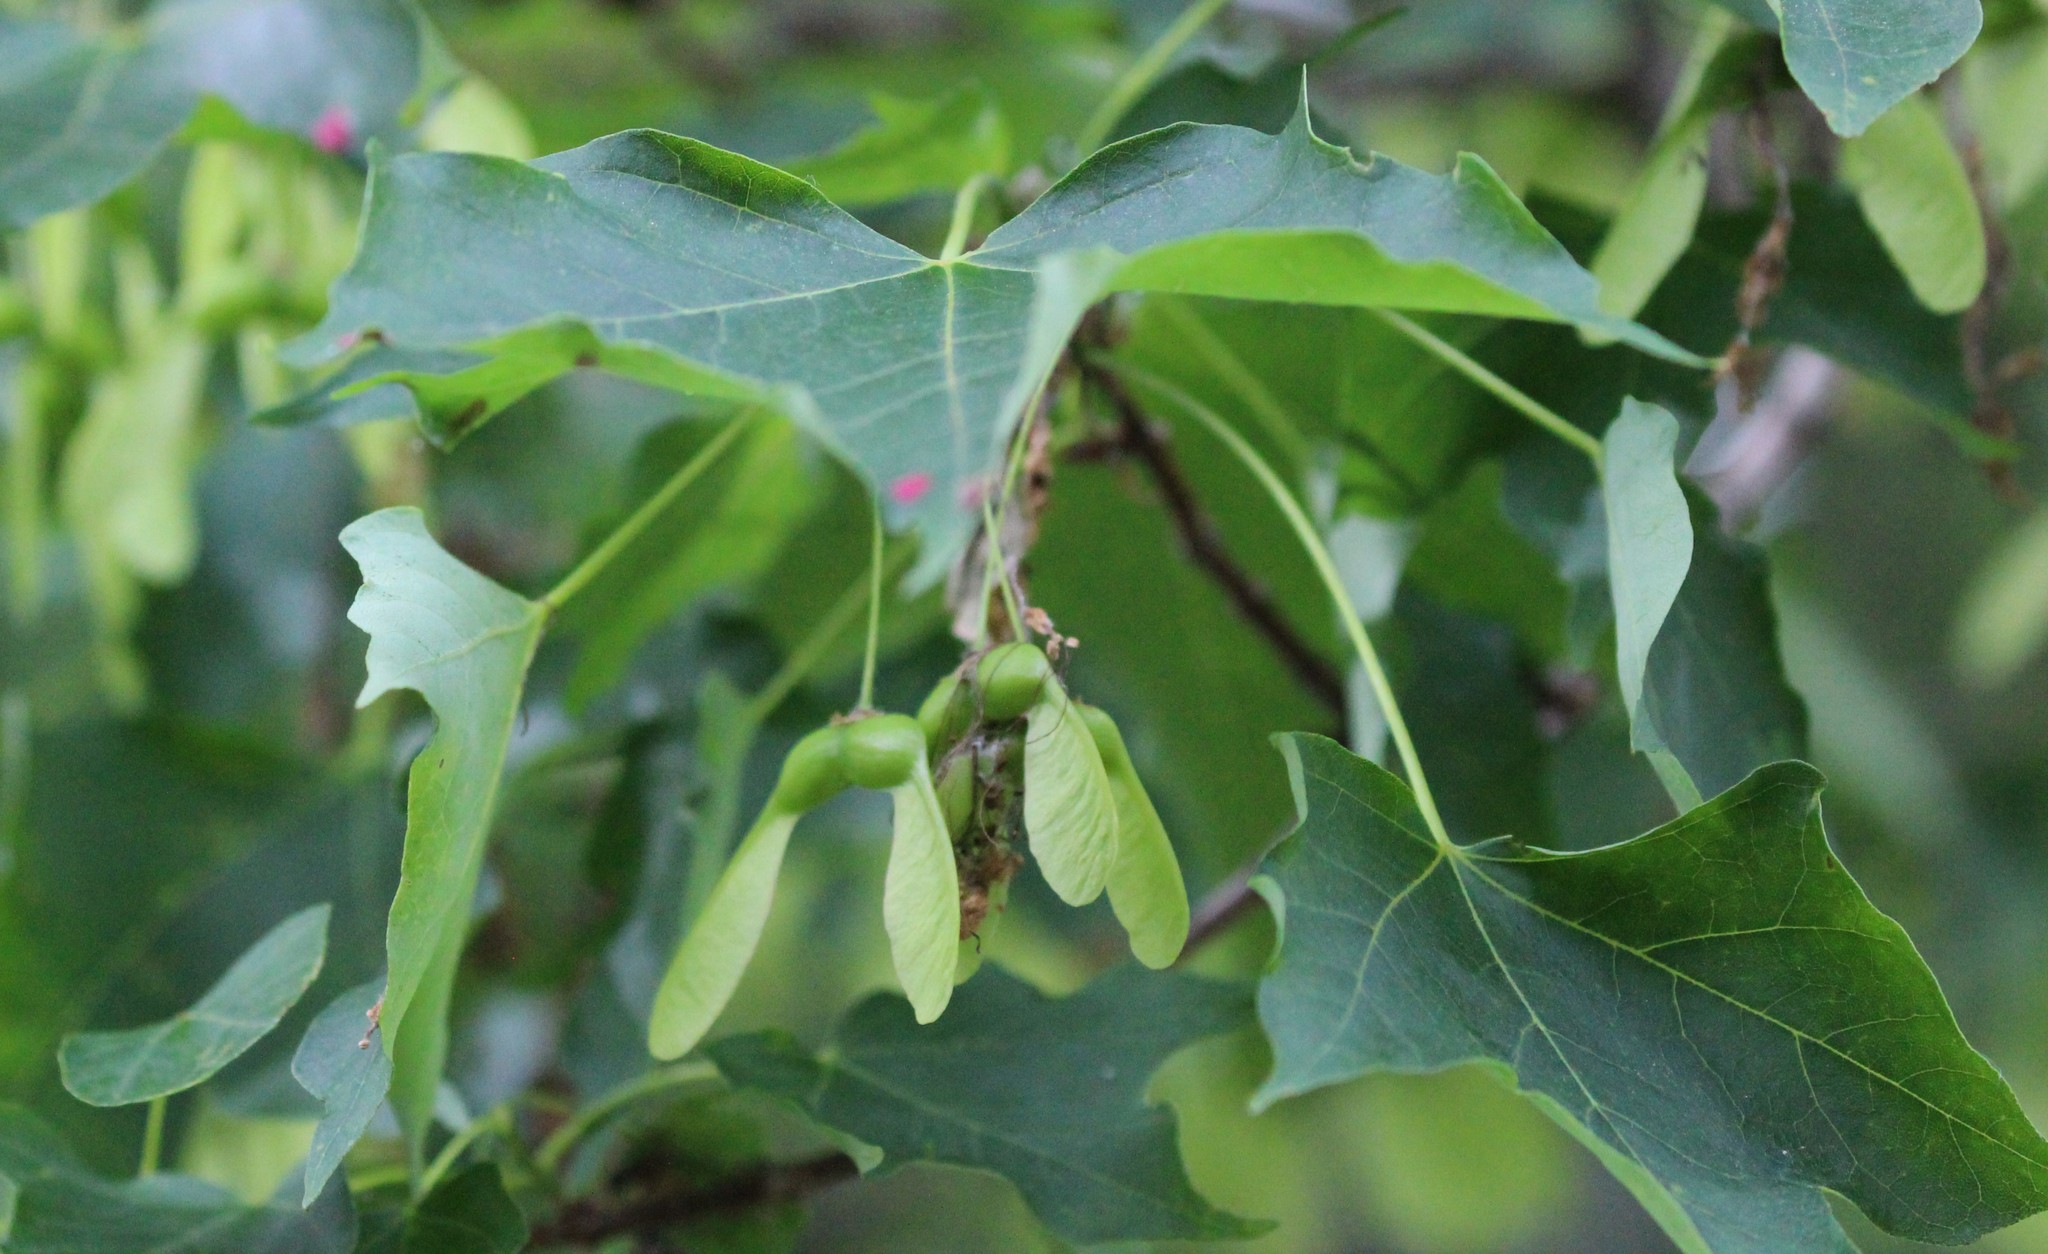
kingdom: Plantae
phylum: Tracheophyta
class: Magnoliopsida
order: Sapindales
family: Sapindaceae
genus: Acer
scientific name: Acer saccharum
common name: Sugar maple
